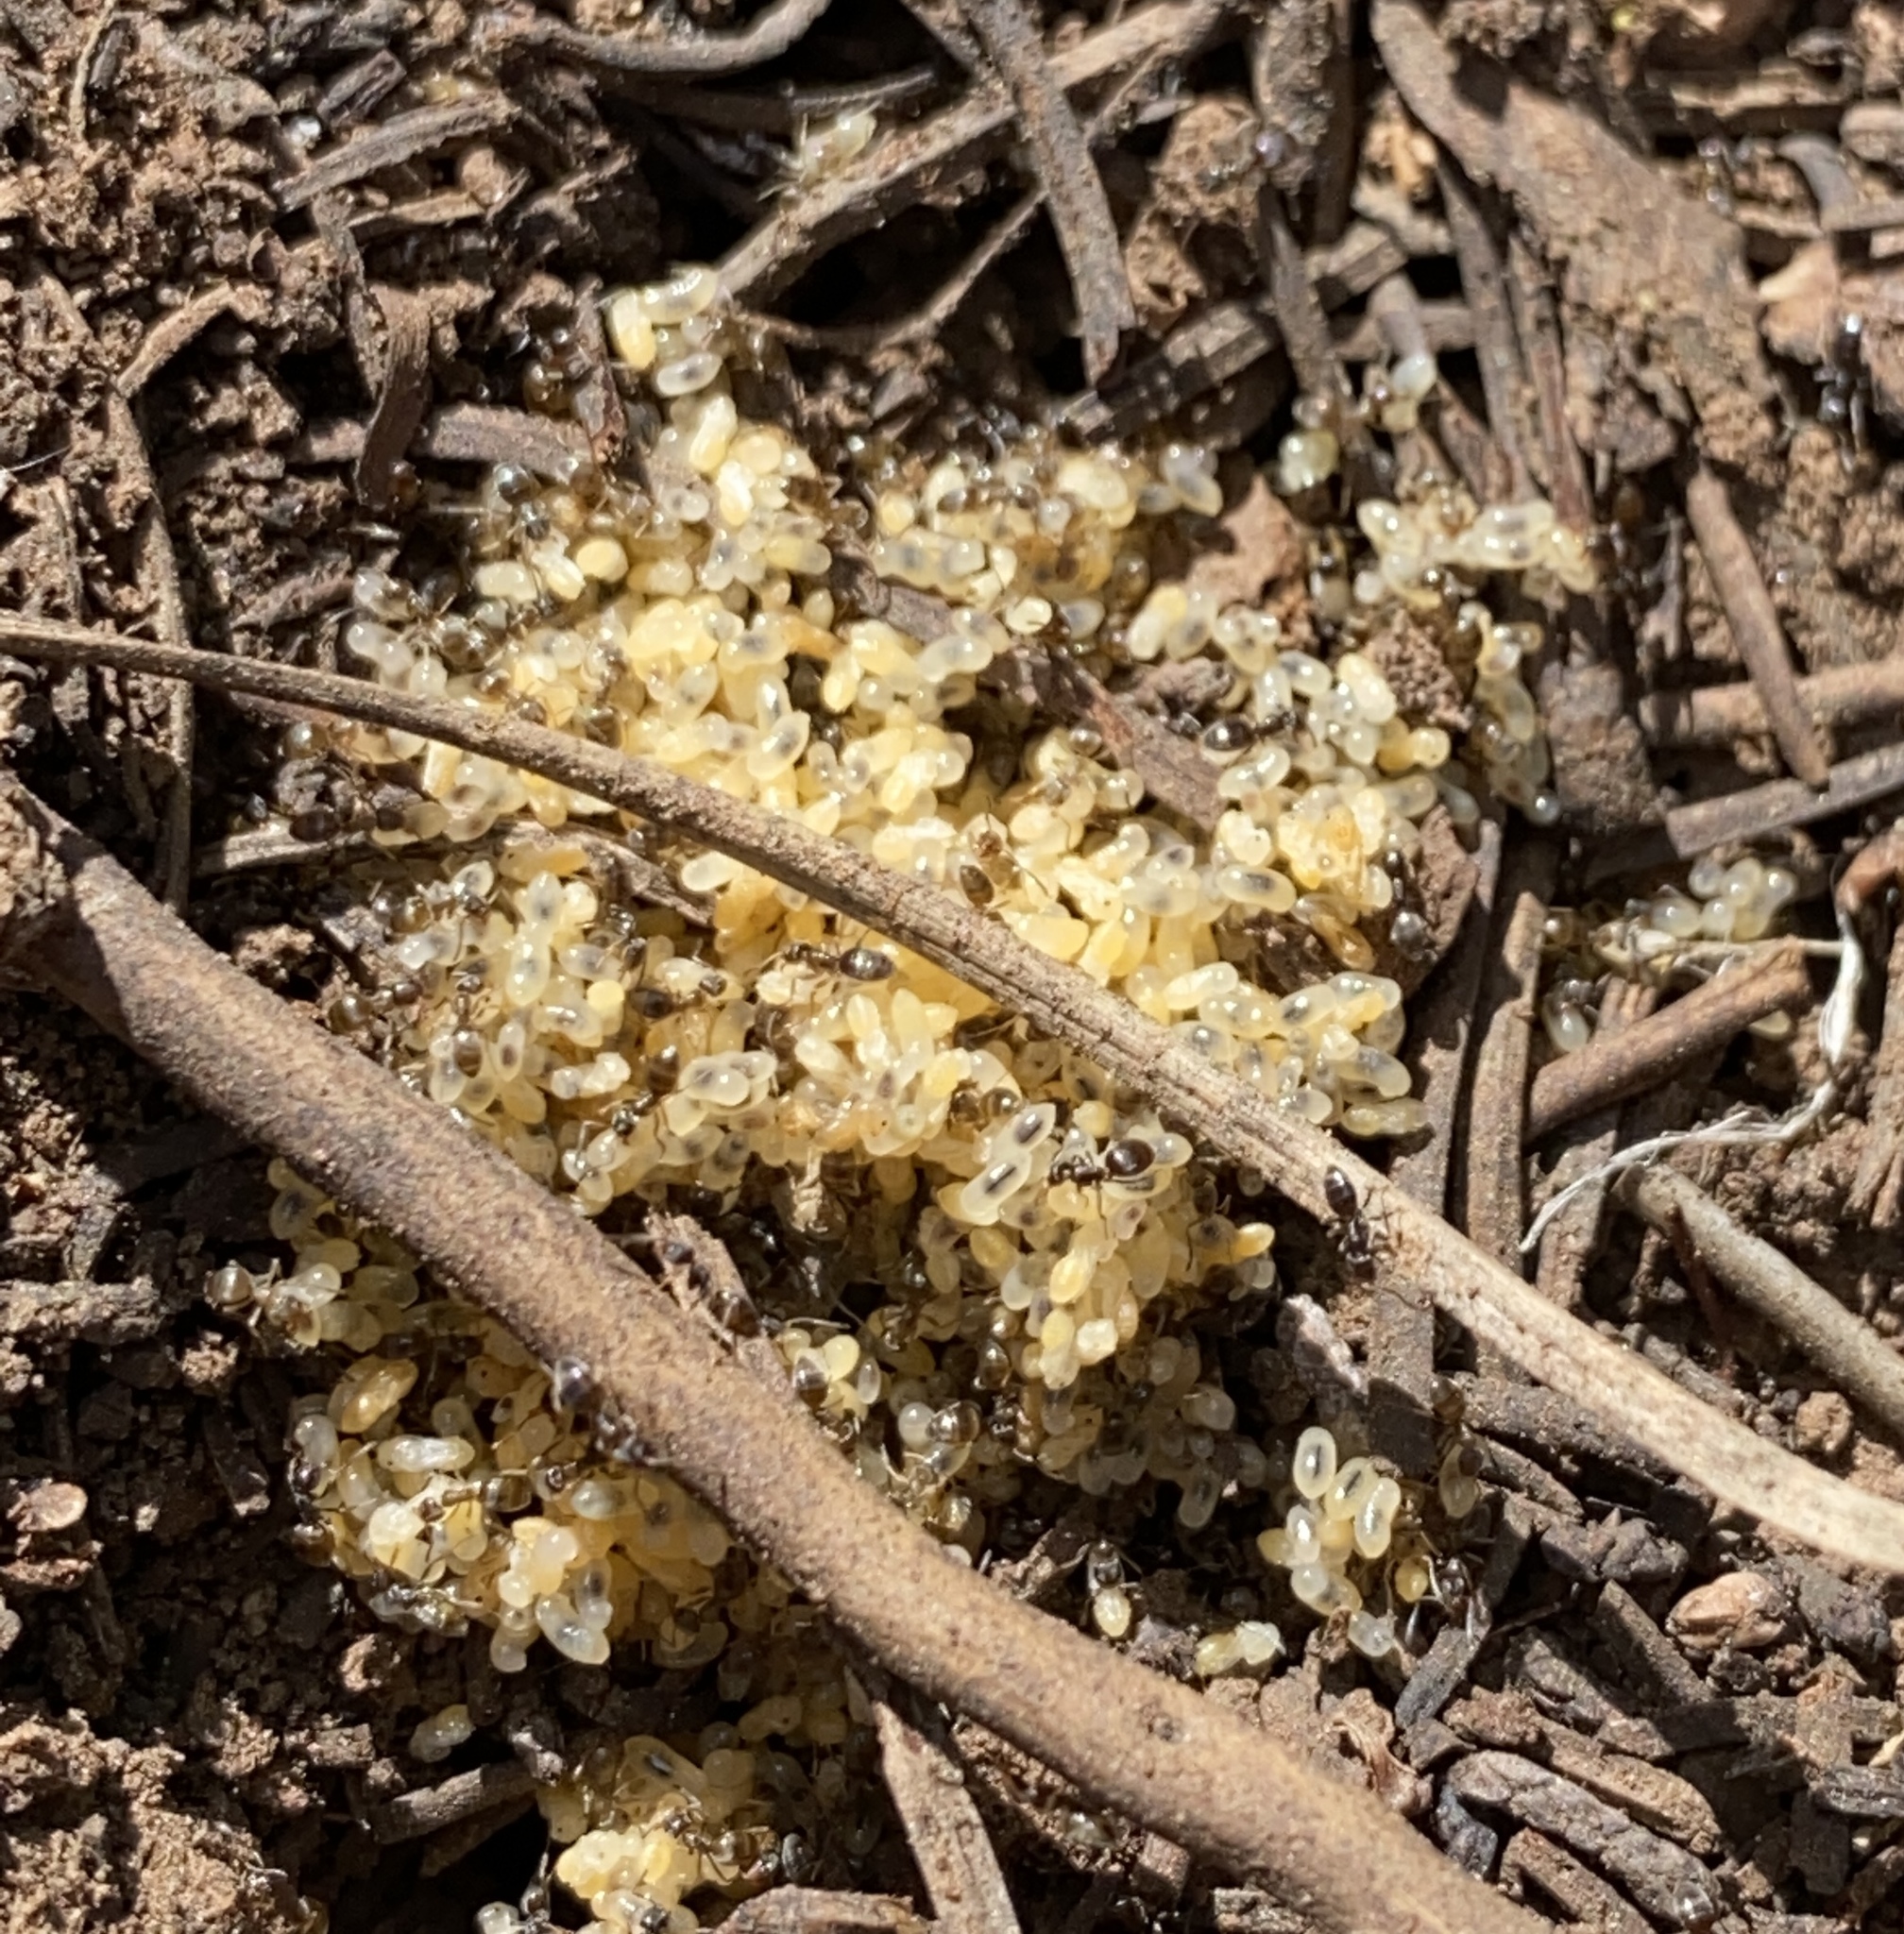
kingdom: Animalia
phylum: Arthropoda
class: Insecta
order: Hymenoptera
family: Formicidae
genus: Tapinoma
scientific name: Tapinoma sessile
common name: Odorous house ant
